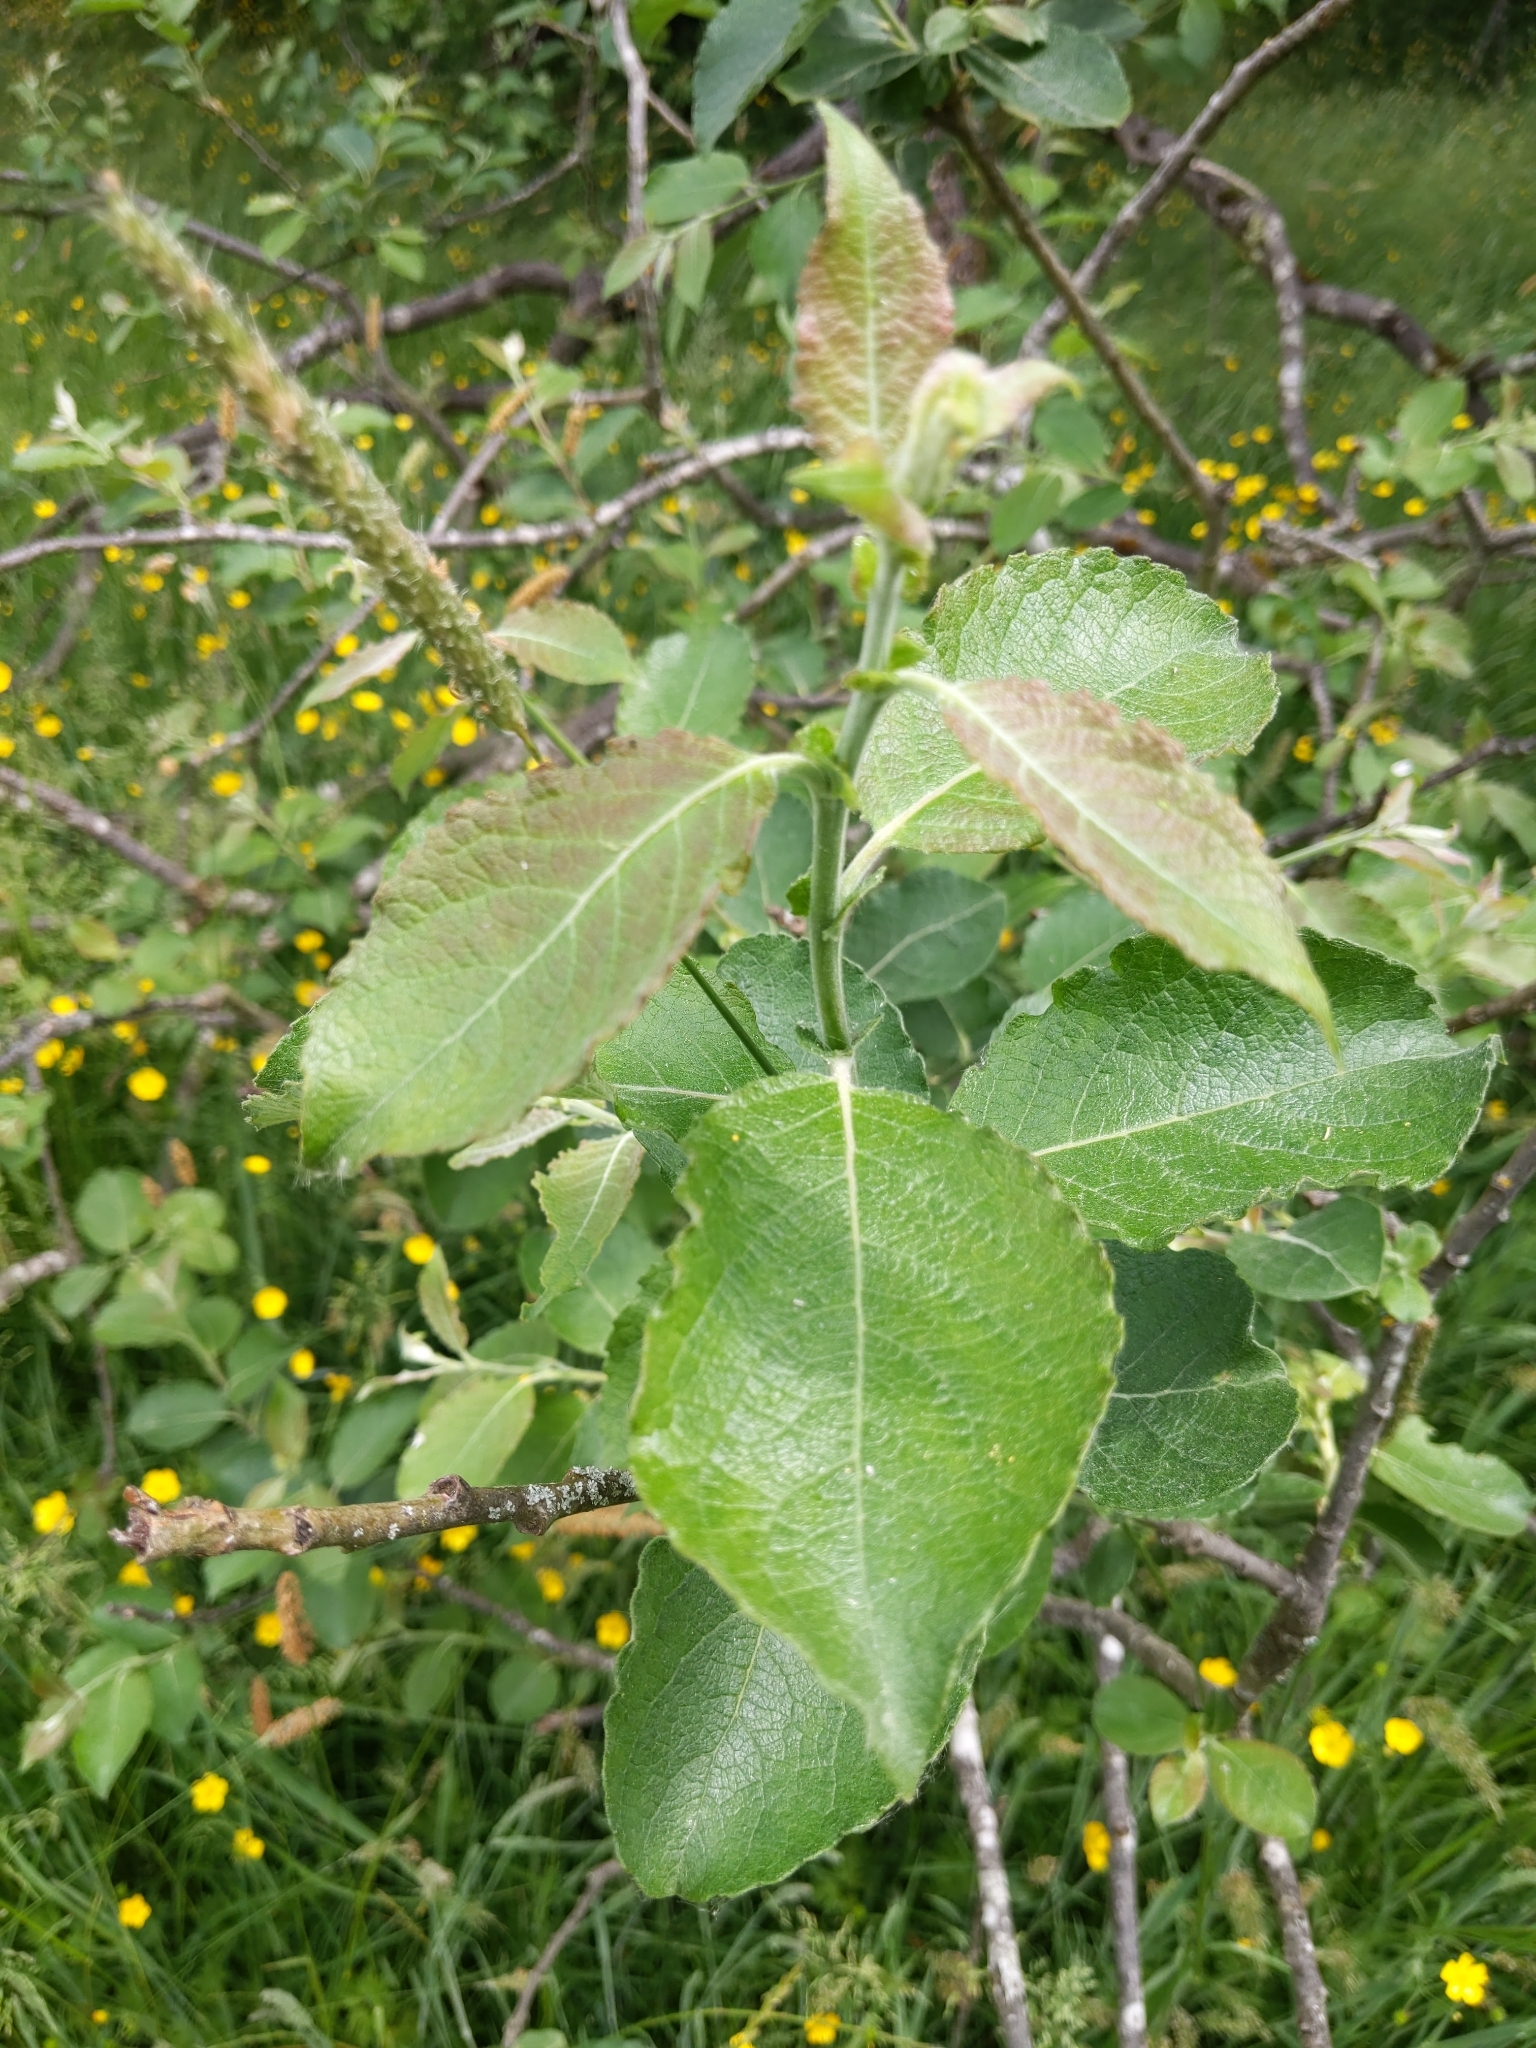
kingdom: Plantae
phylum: Tracheophyta
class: Magnoliopsida
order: Malpighiales
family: Salicaceae
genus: Salix
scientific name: Salix caprea
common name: Goat willow
